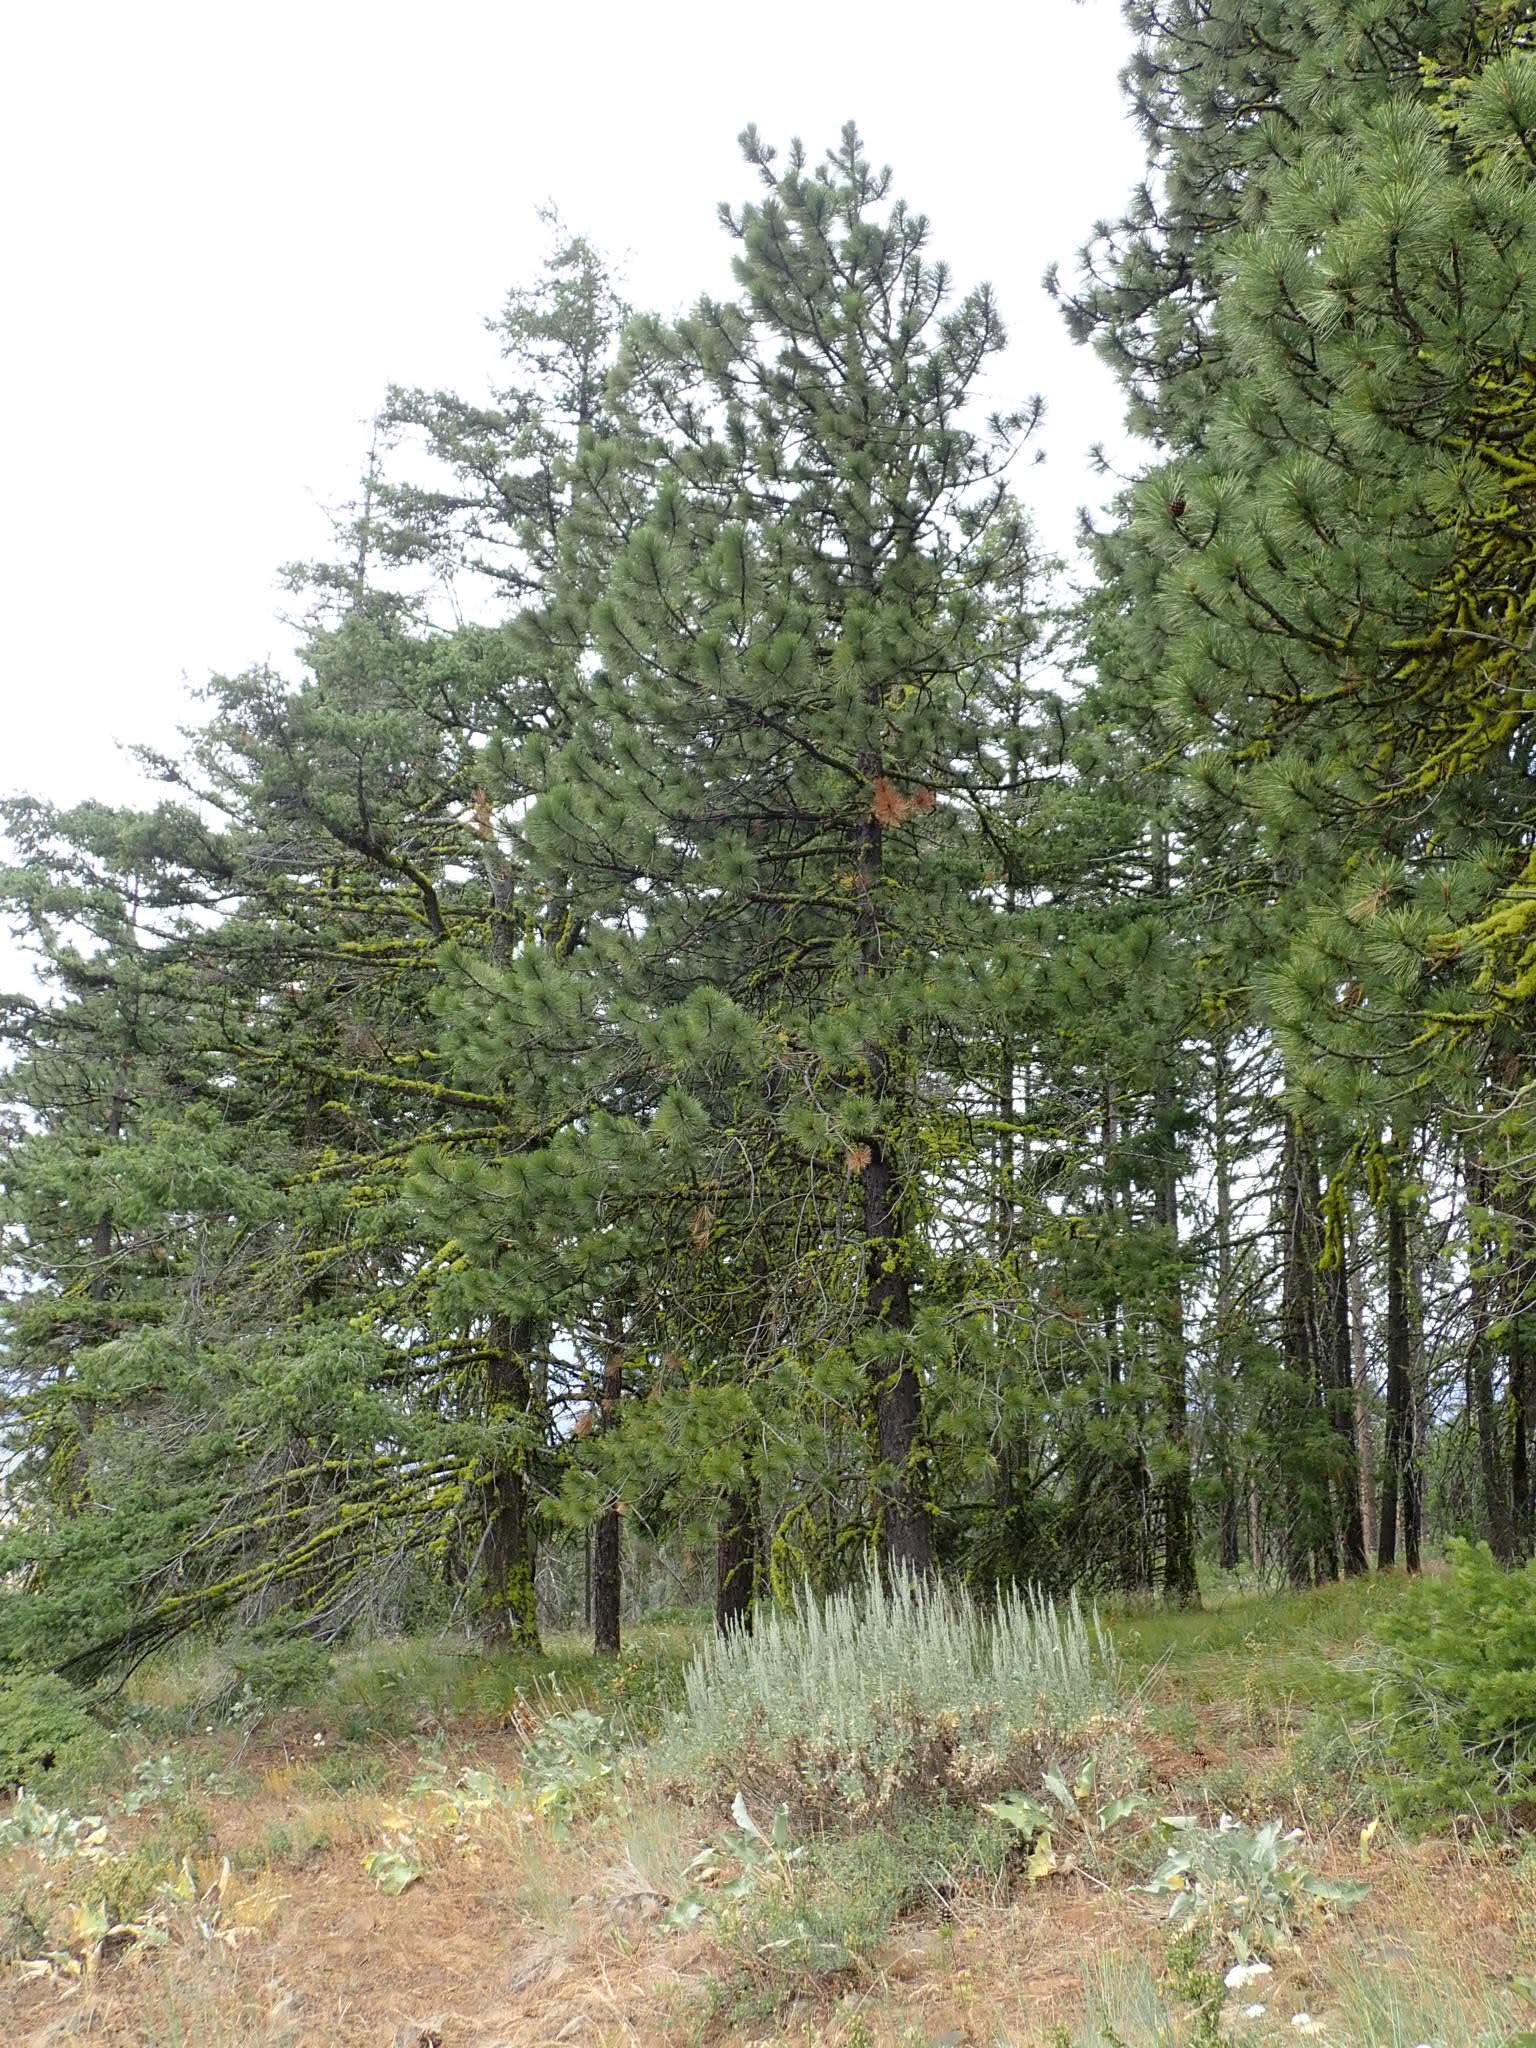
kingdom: Plantae
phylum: Tracheophyta
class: Pinopsida
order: Pinales
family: Pinaceae
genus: Pinus
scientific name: Pinus ponderosa
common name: Western yellow-pine
